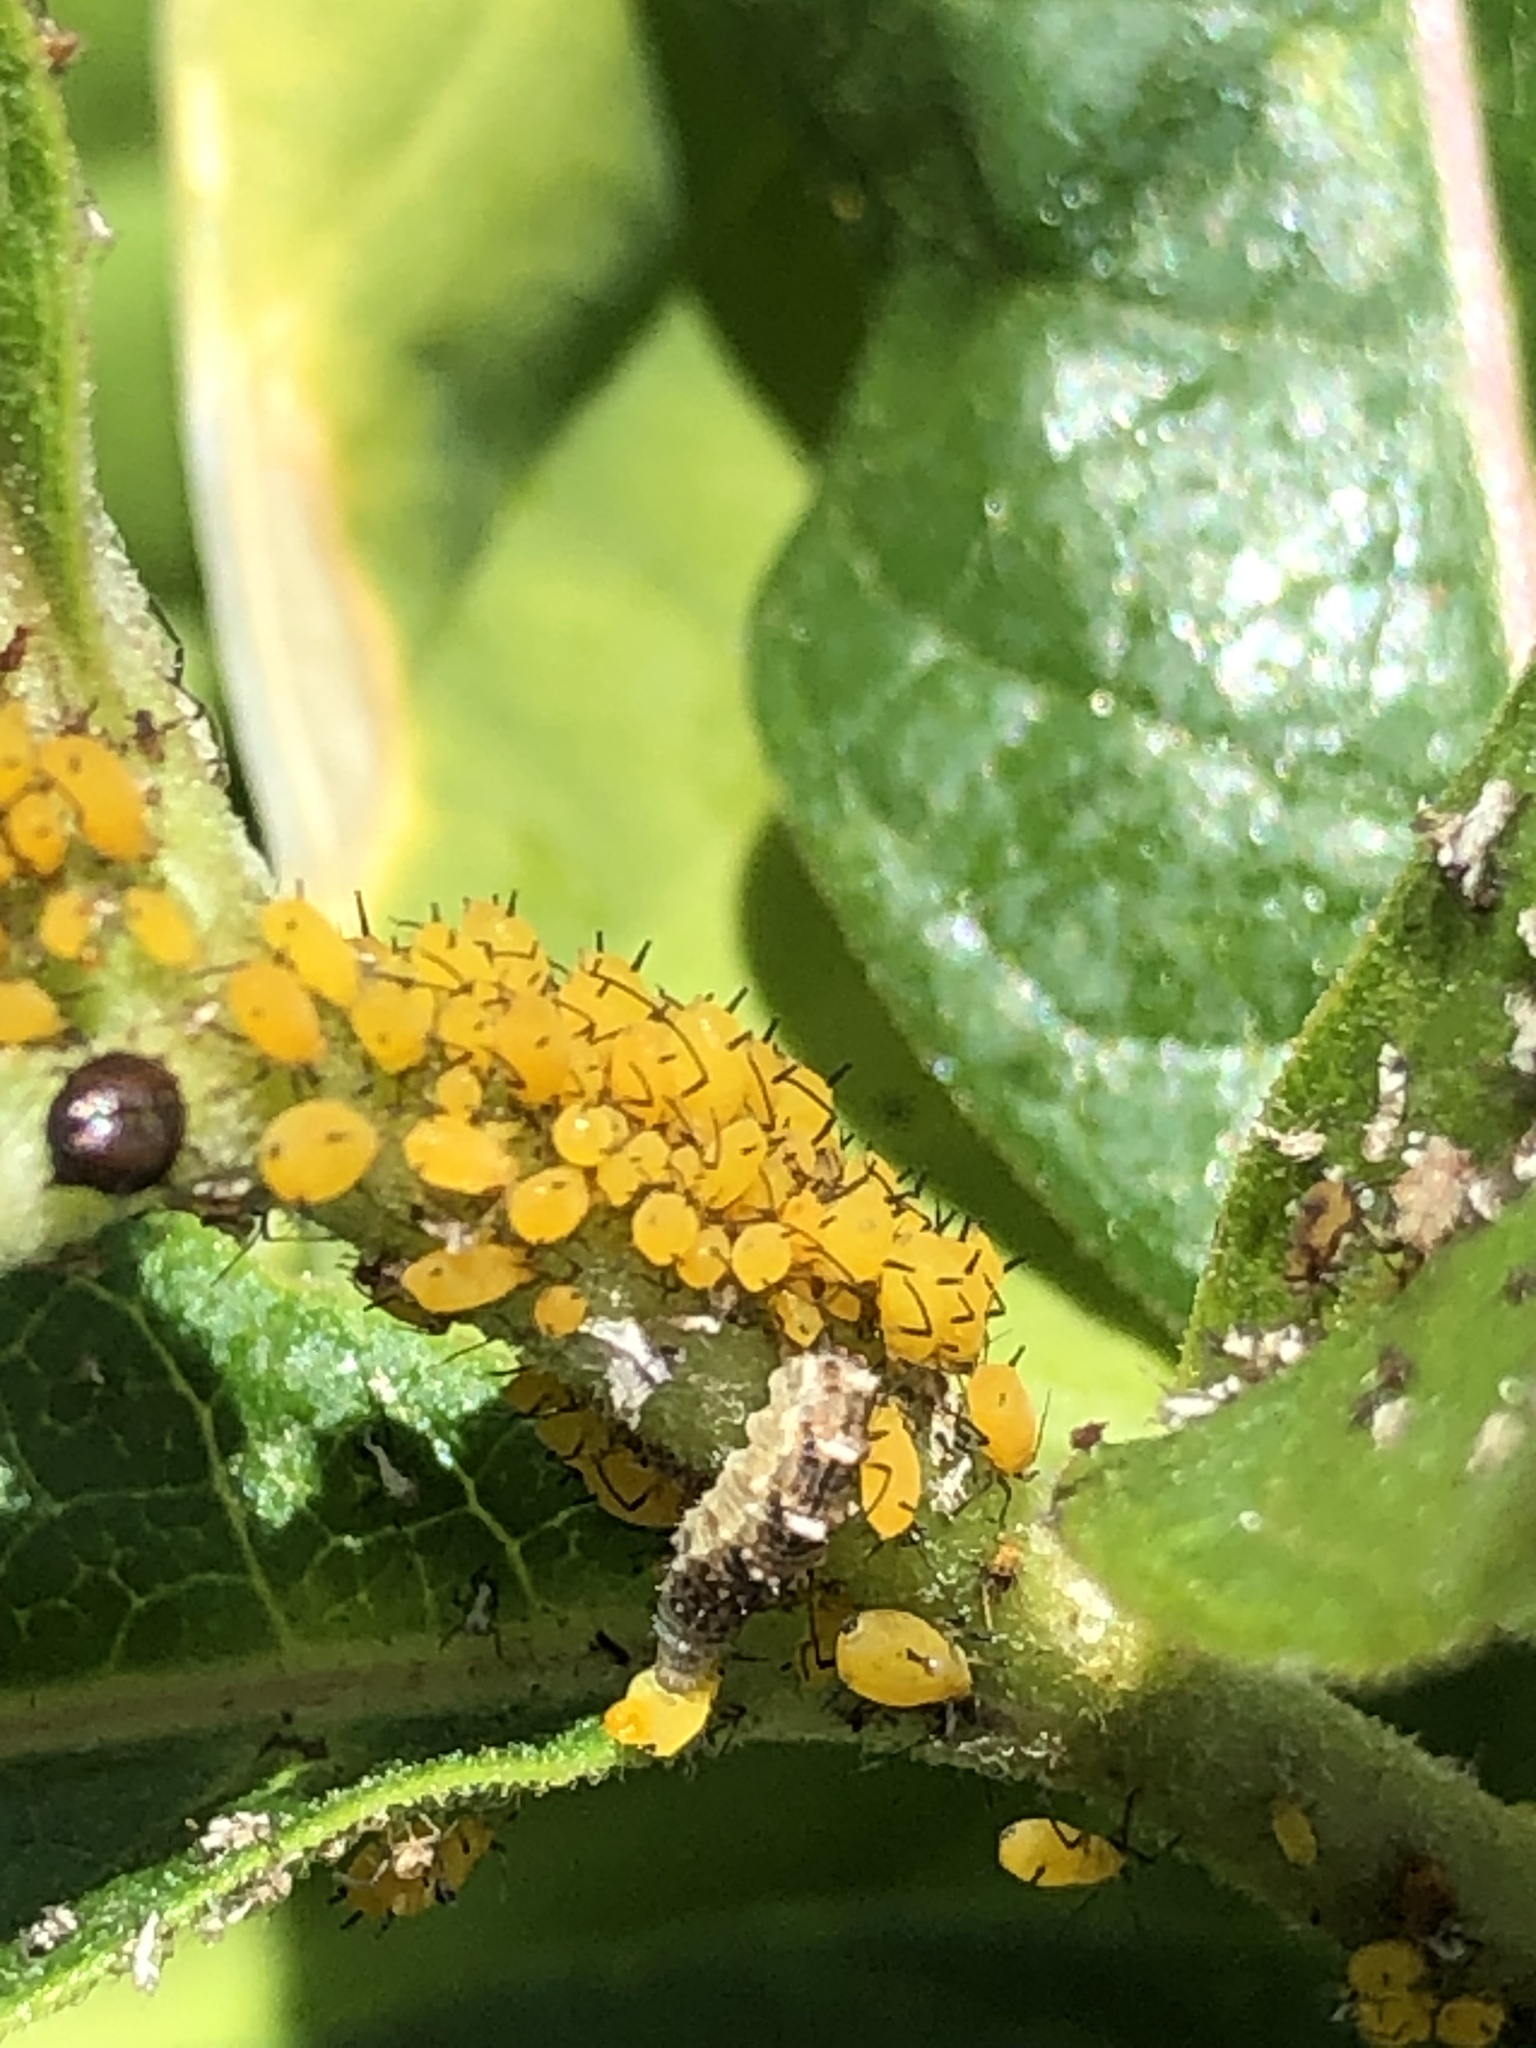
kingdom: Animalia
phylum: Arthropoda
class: Insecta
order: Hemiptera
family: Aphididae
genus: Aphis
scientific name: Aphis nerii
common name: Oleander aphid
